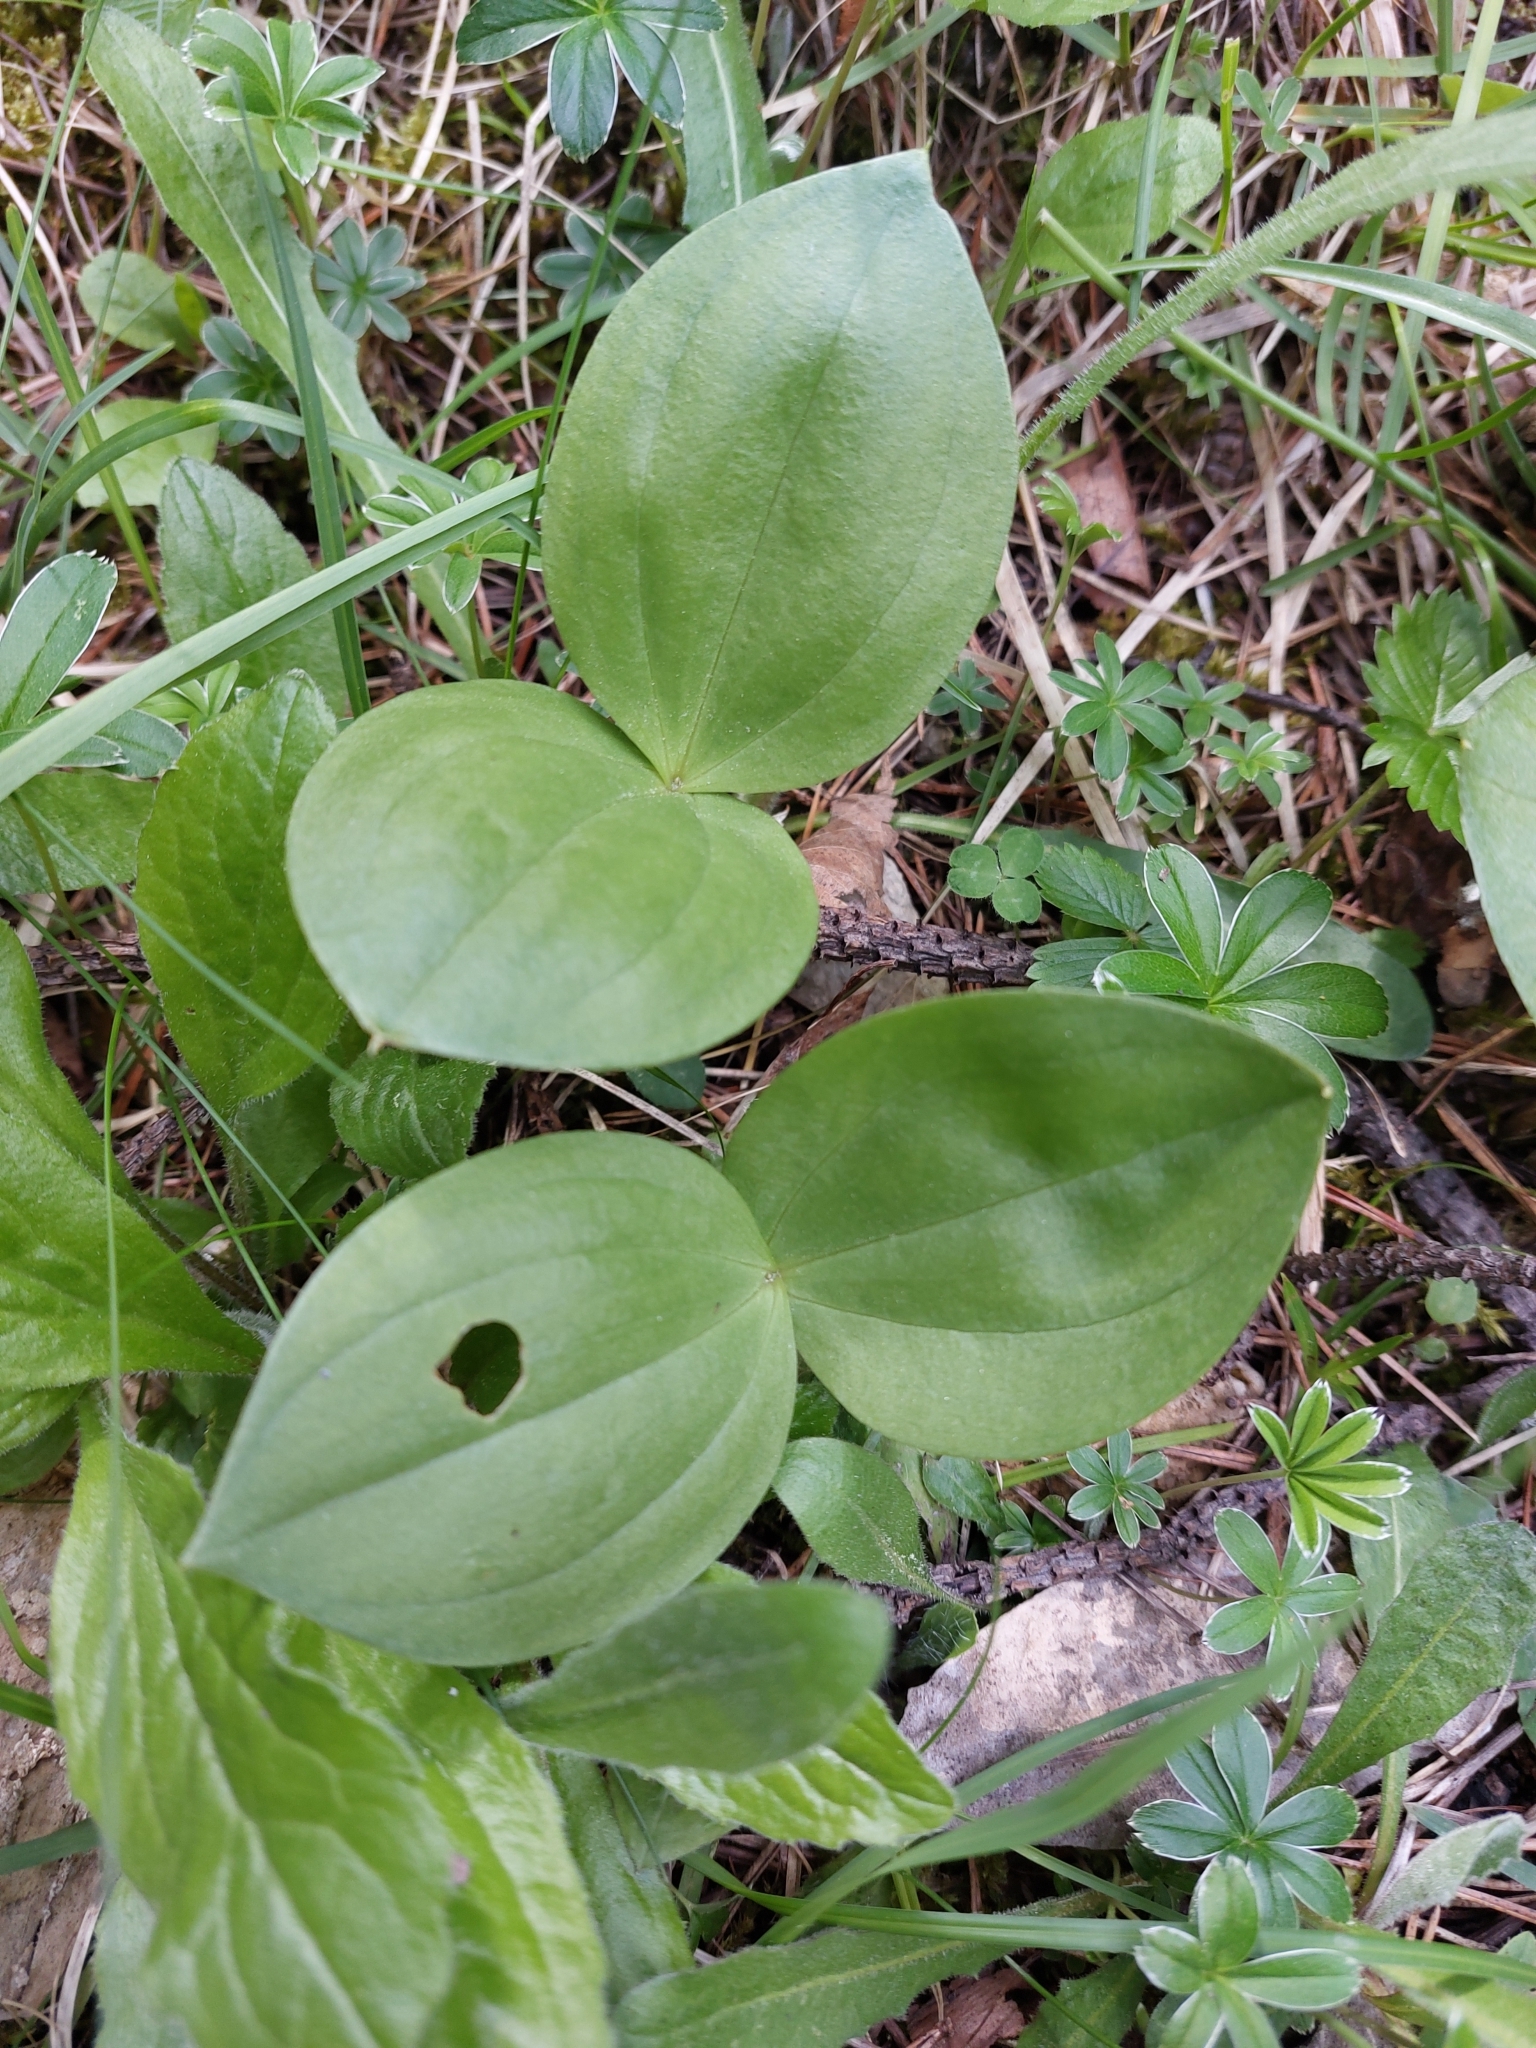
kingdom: Plantae
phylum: Tracheophyta
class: Liliopsida
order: Asparagales
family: Orchidaceae
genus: Neottia
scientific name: Neottia ovata
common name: Common twayblade
